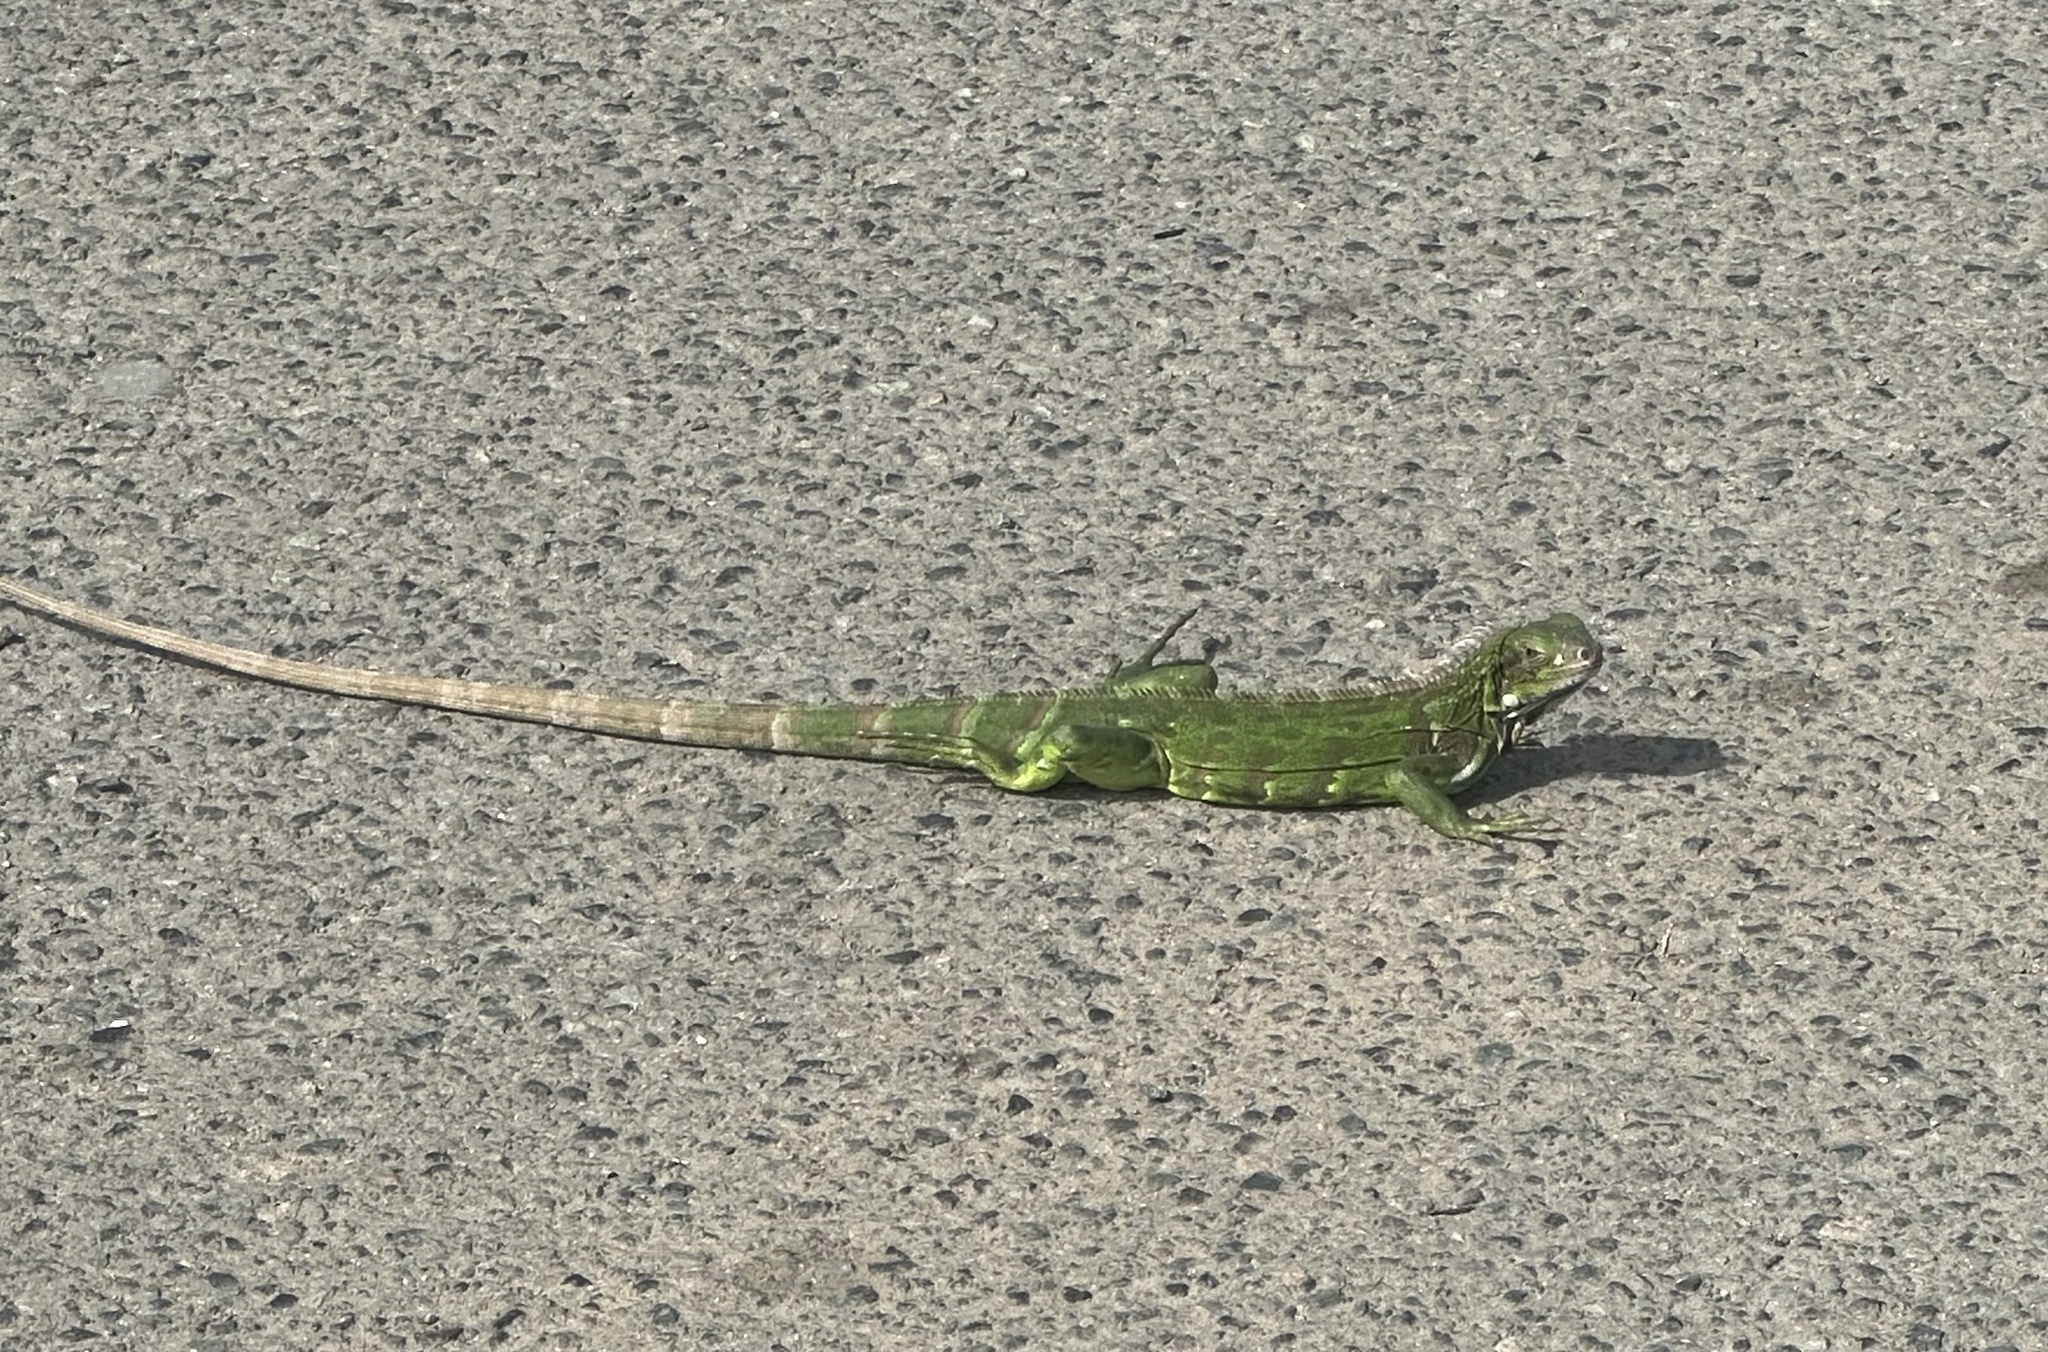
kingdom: Animalia
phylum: Chordata
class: Squamata
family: Iguanidae
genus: Iguana
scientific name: Iguana iguana
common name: Green iguana
